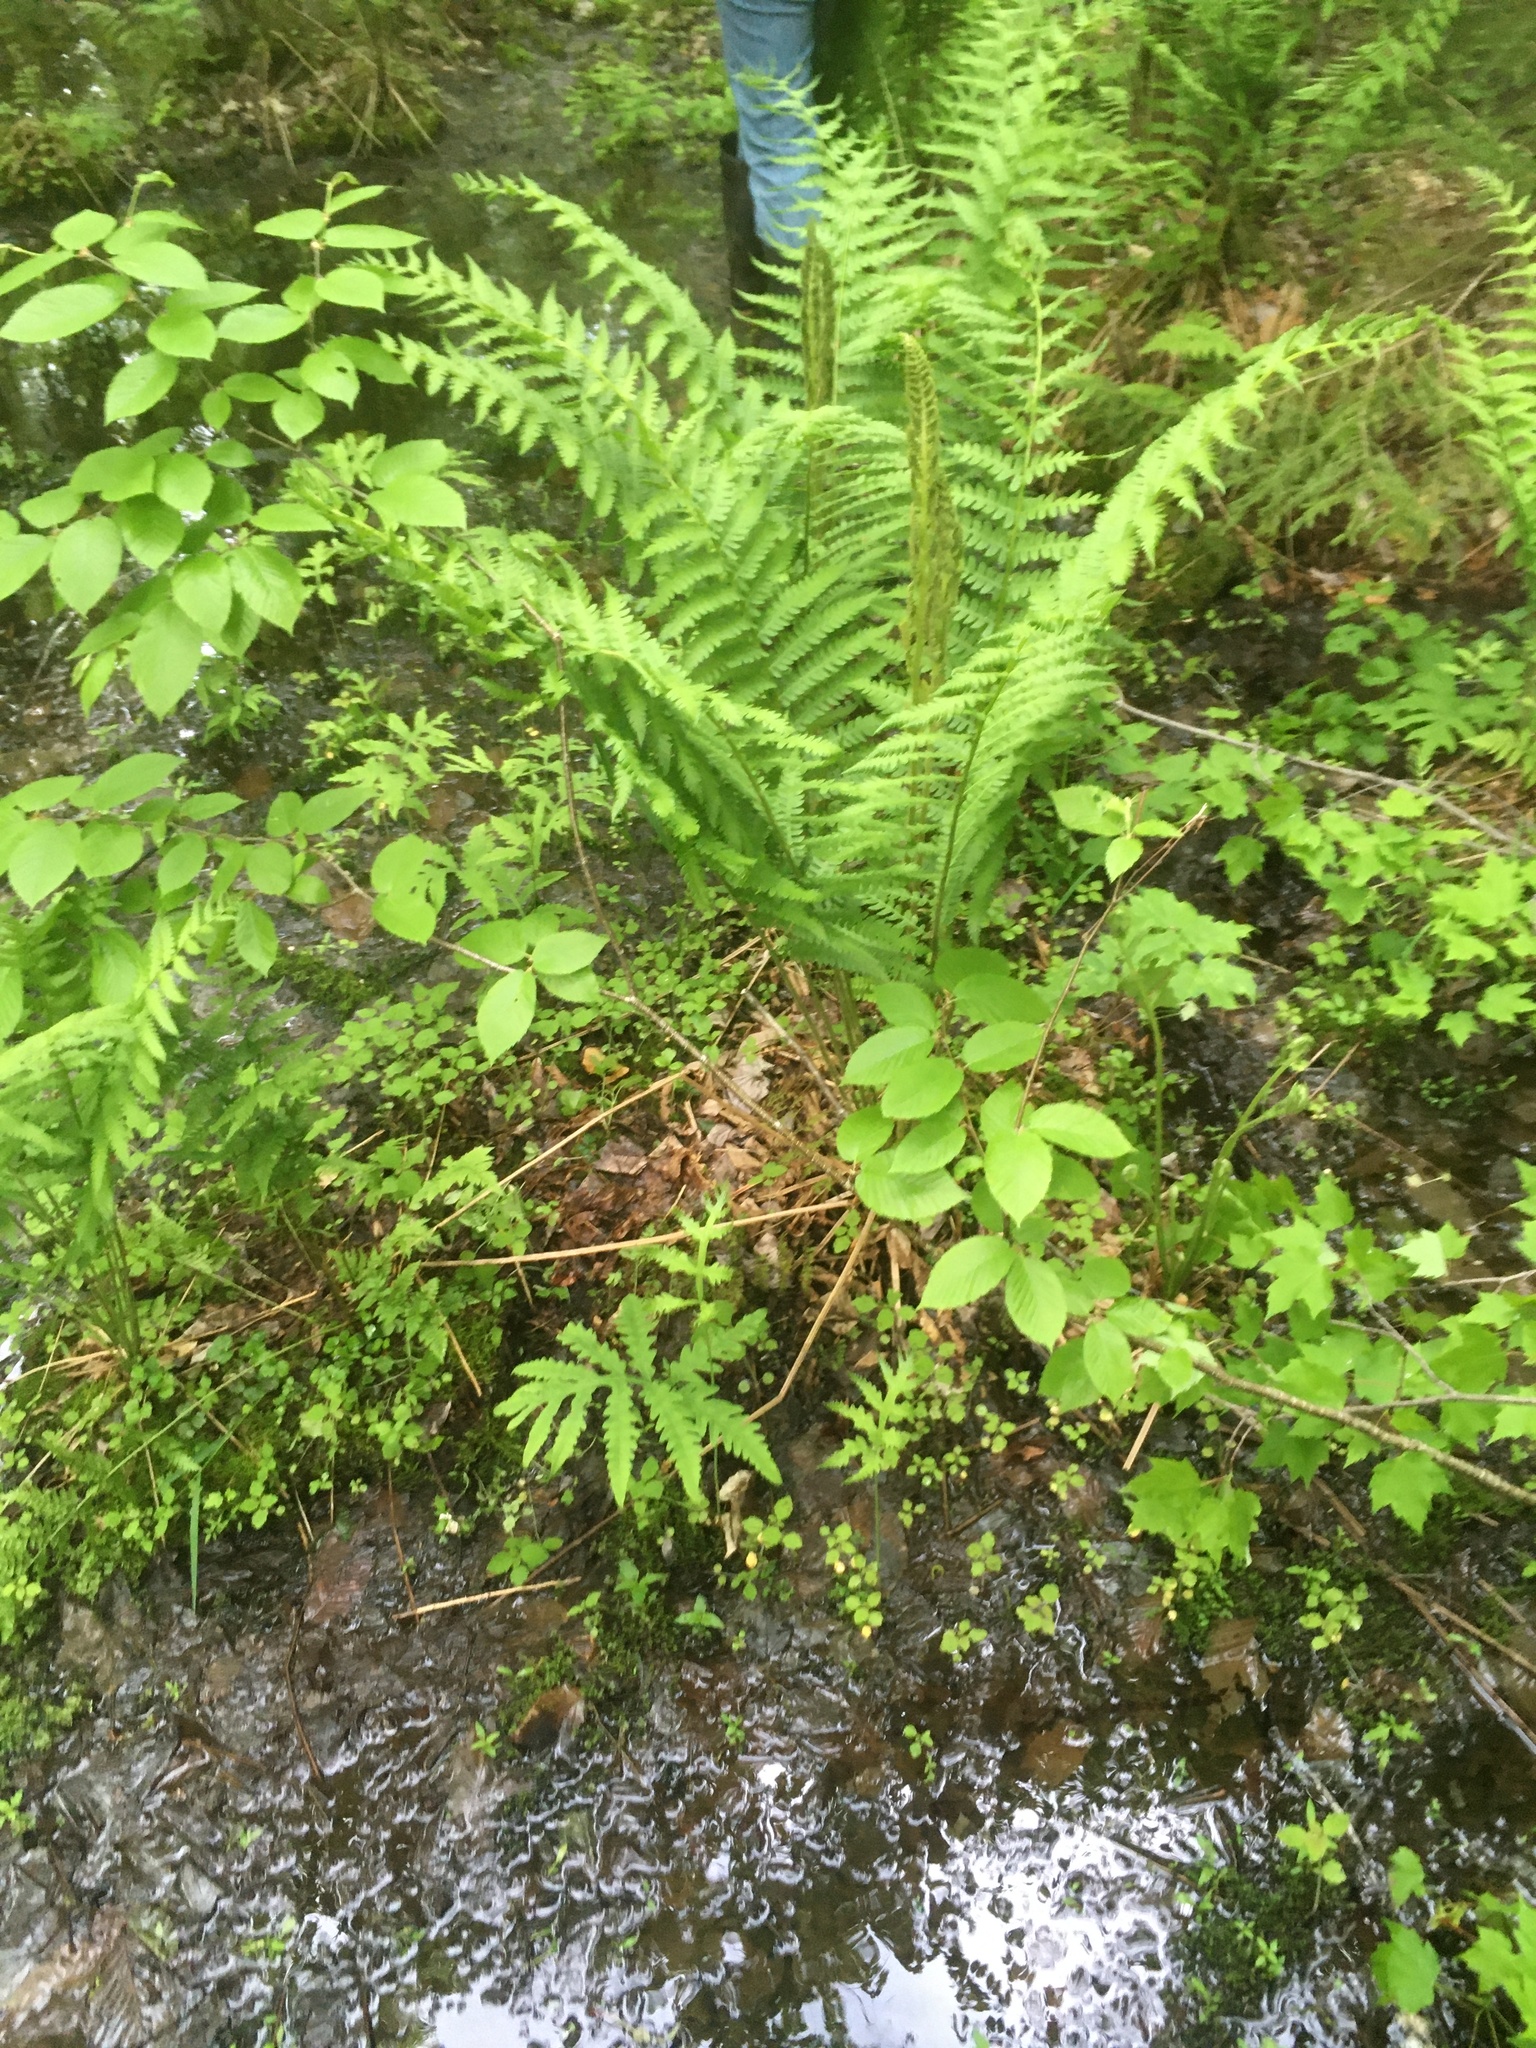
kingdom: Plantae
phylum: Tracheophyta
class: Polypodiopsida
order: Osmundales
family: Osmundaceae
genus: Osmundastrum
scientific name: Osmundastrum cinnamomeum
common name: Cinnamon fern
